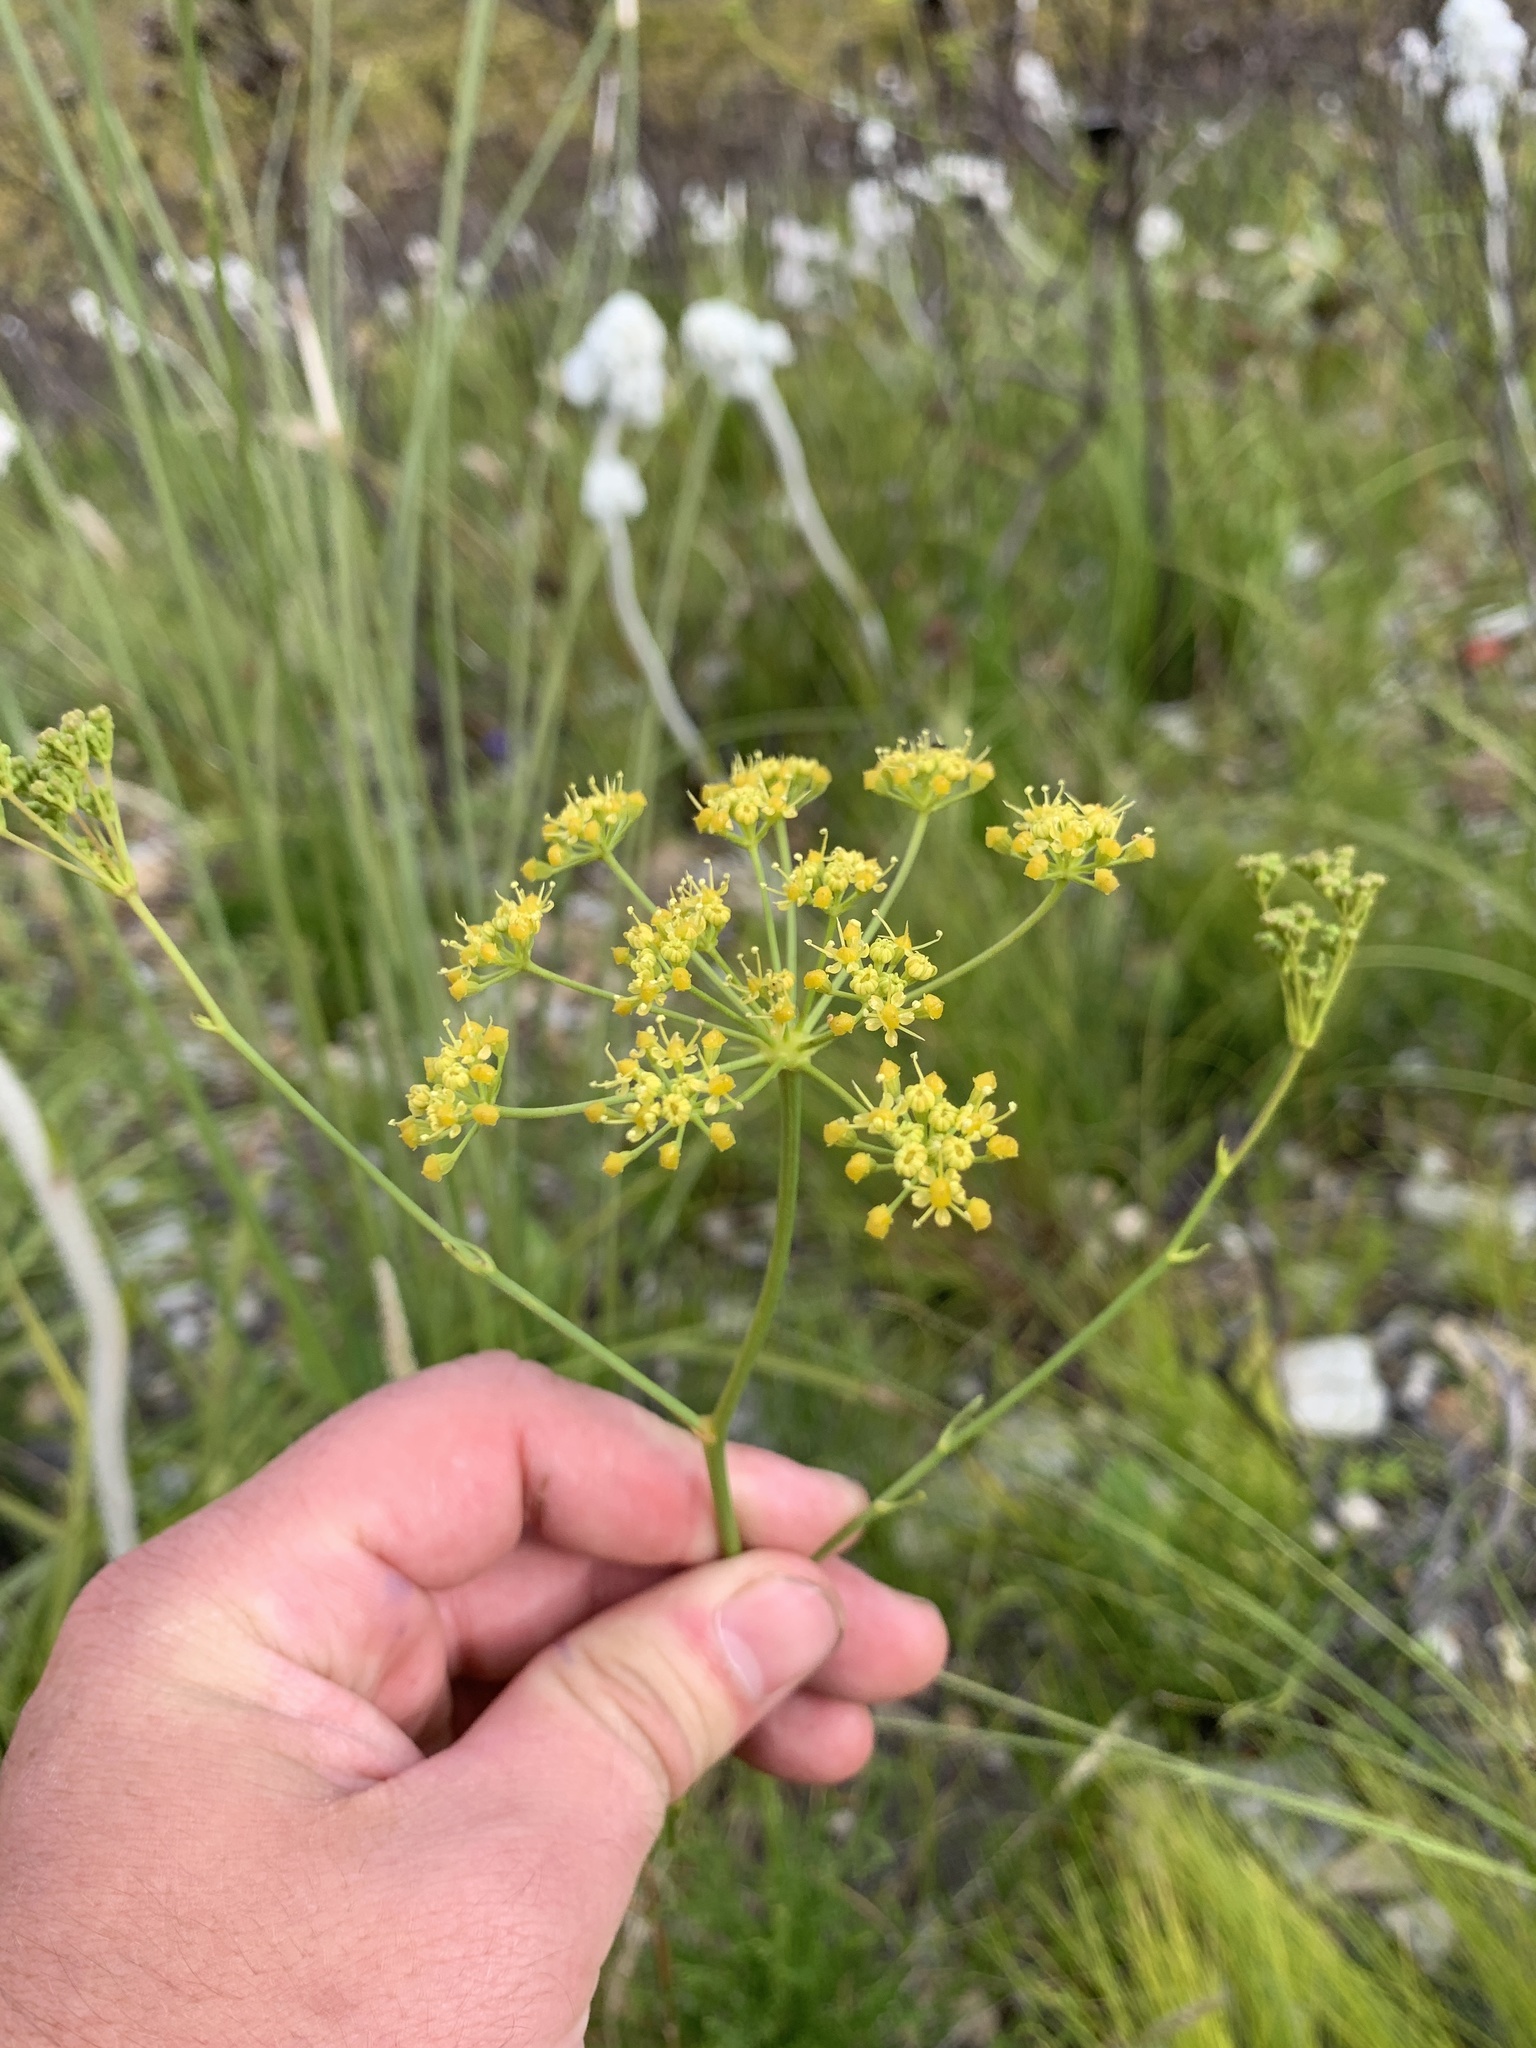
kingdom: Plantae
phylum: Tracheophyta
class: Magnoliopsida
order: Apiales
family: Apiaceae
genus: Glia
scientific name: Glia prolifera
